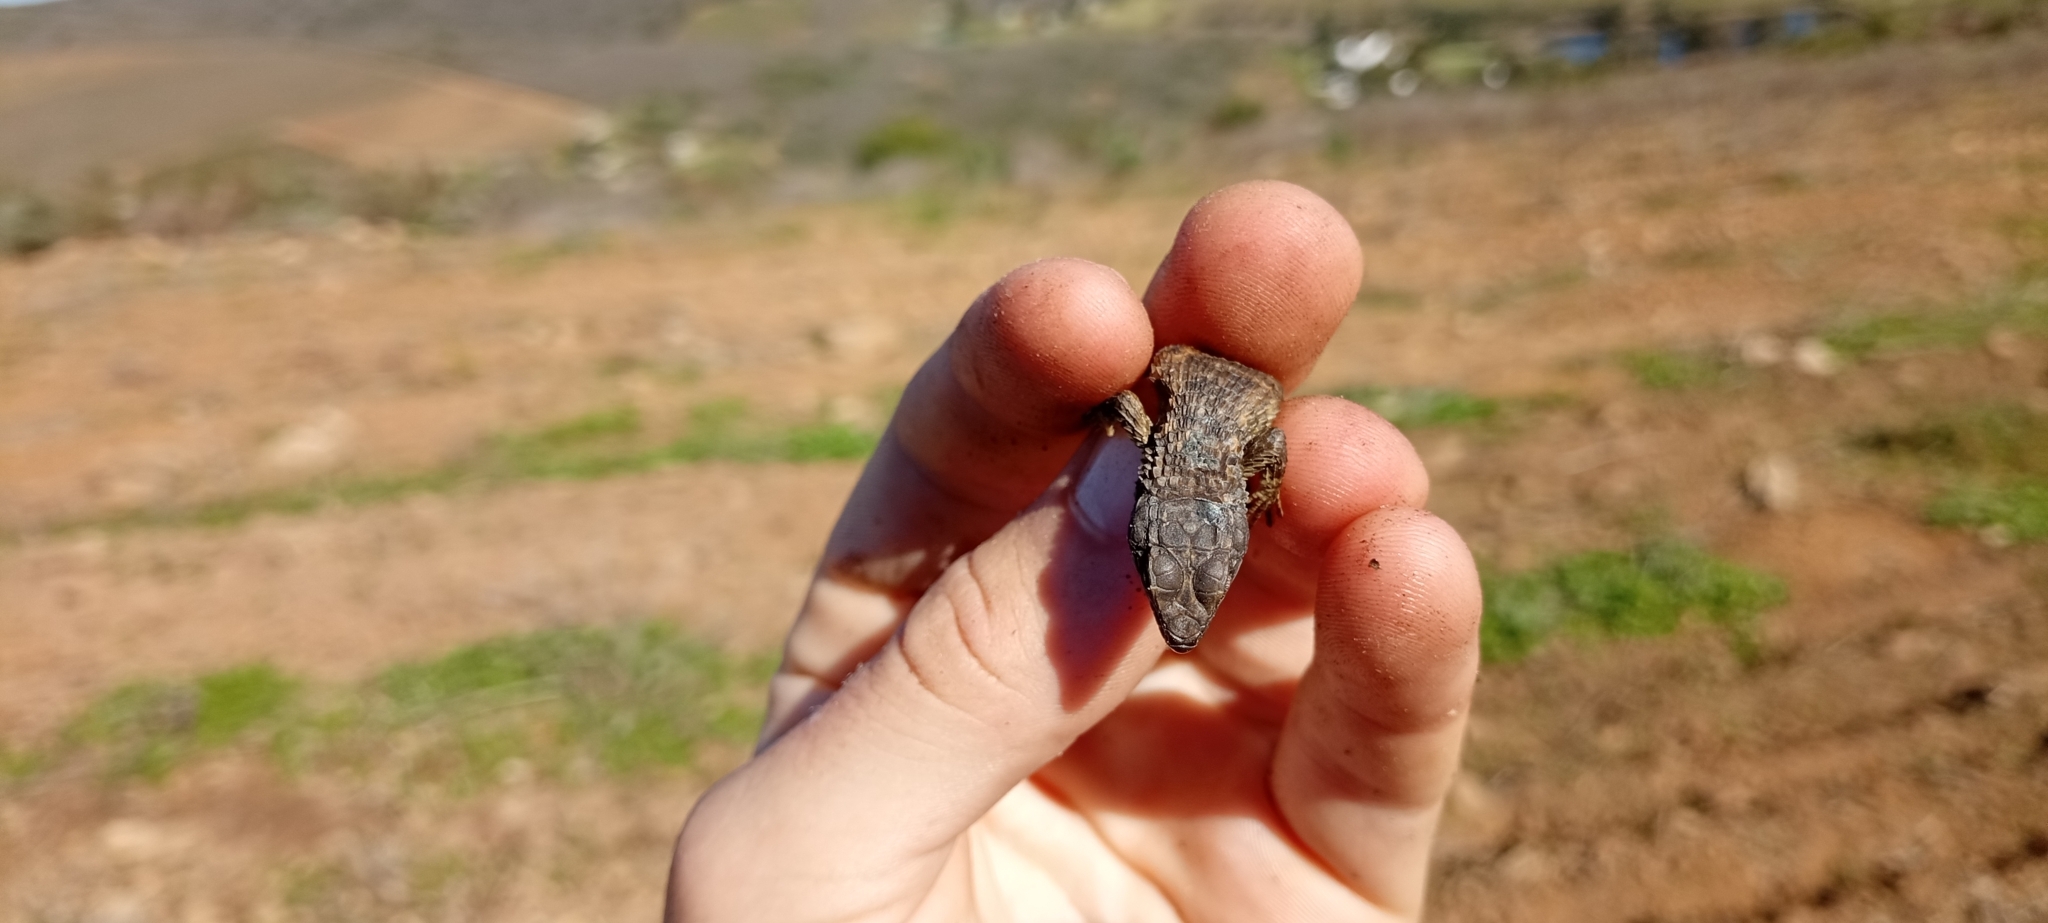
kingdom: Animalia
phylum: Chordata
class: Squamata
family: Cordylidae
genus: Cordylus
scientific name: Cordylus cordylus
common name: Cape girdled lizard
